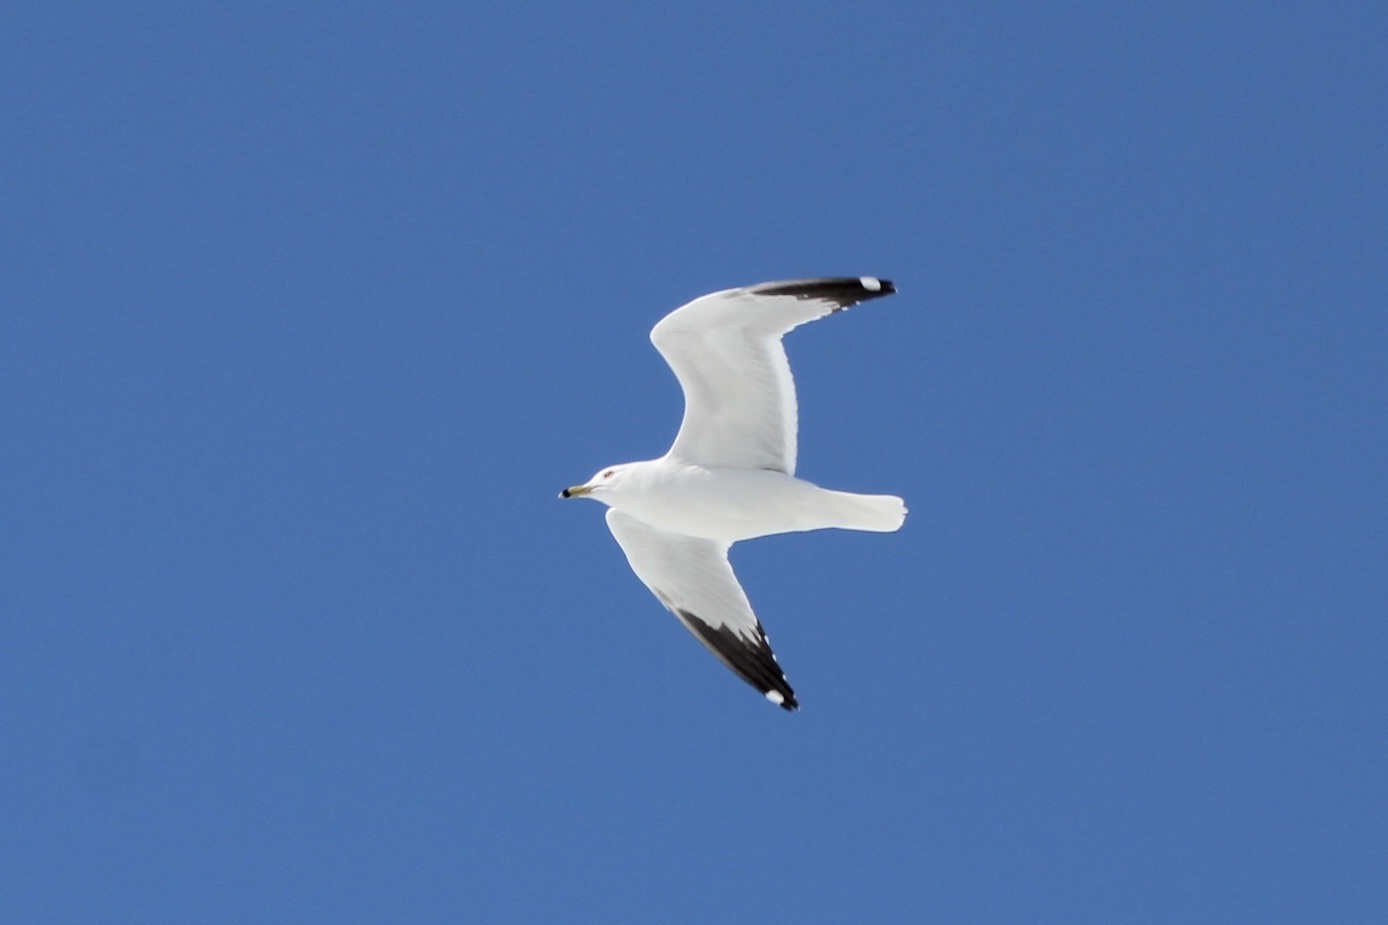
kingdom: Animalia
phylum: Chordata
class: Aves
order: Charadriiformes
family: Laridae
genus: Larus
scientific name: Larus delawarensis
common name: Ring-billed gull
